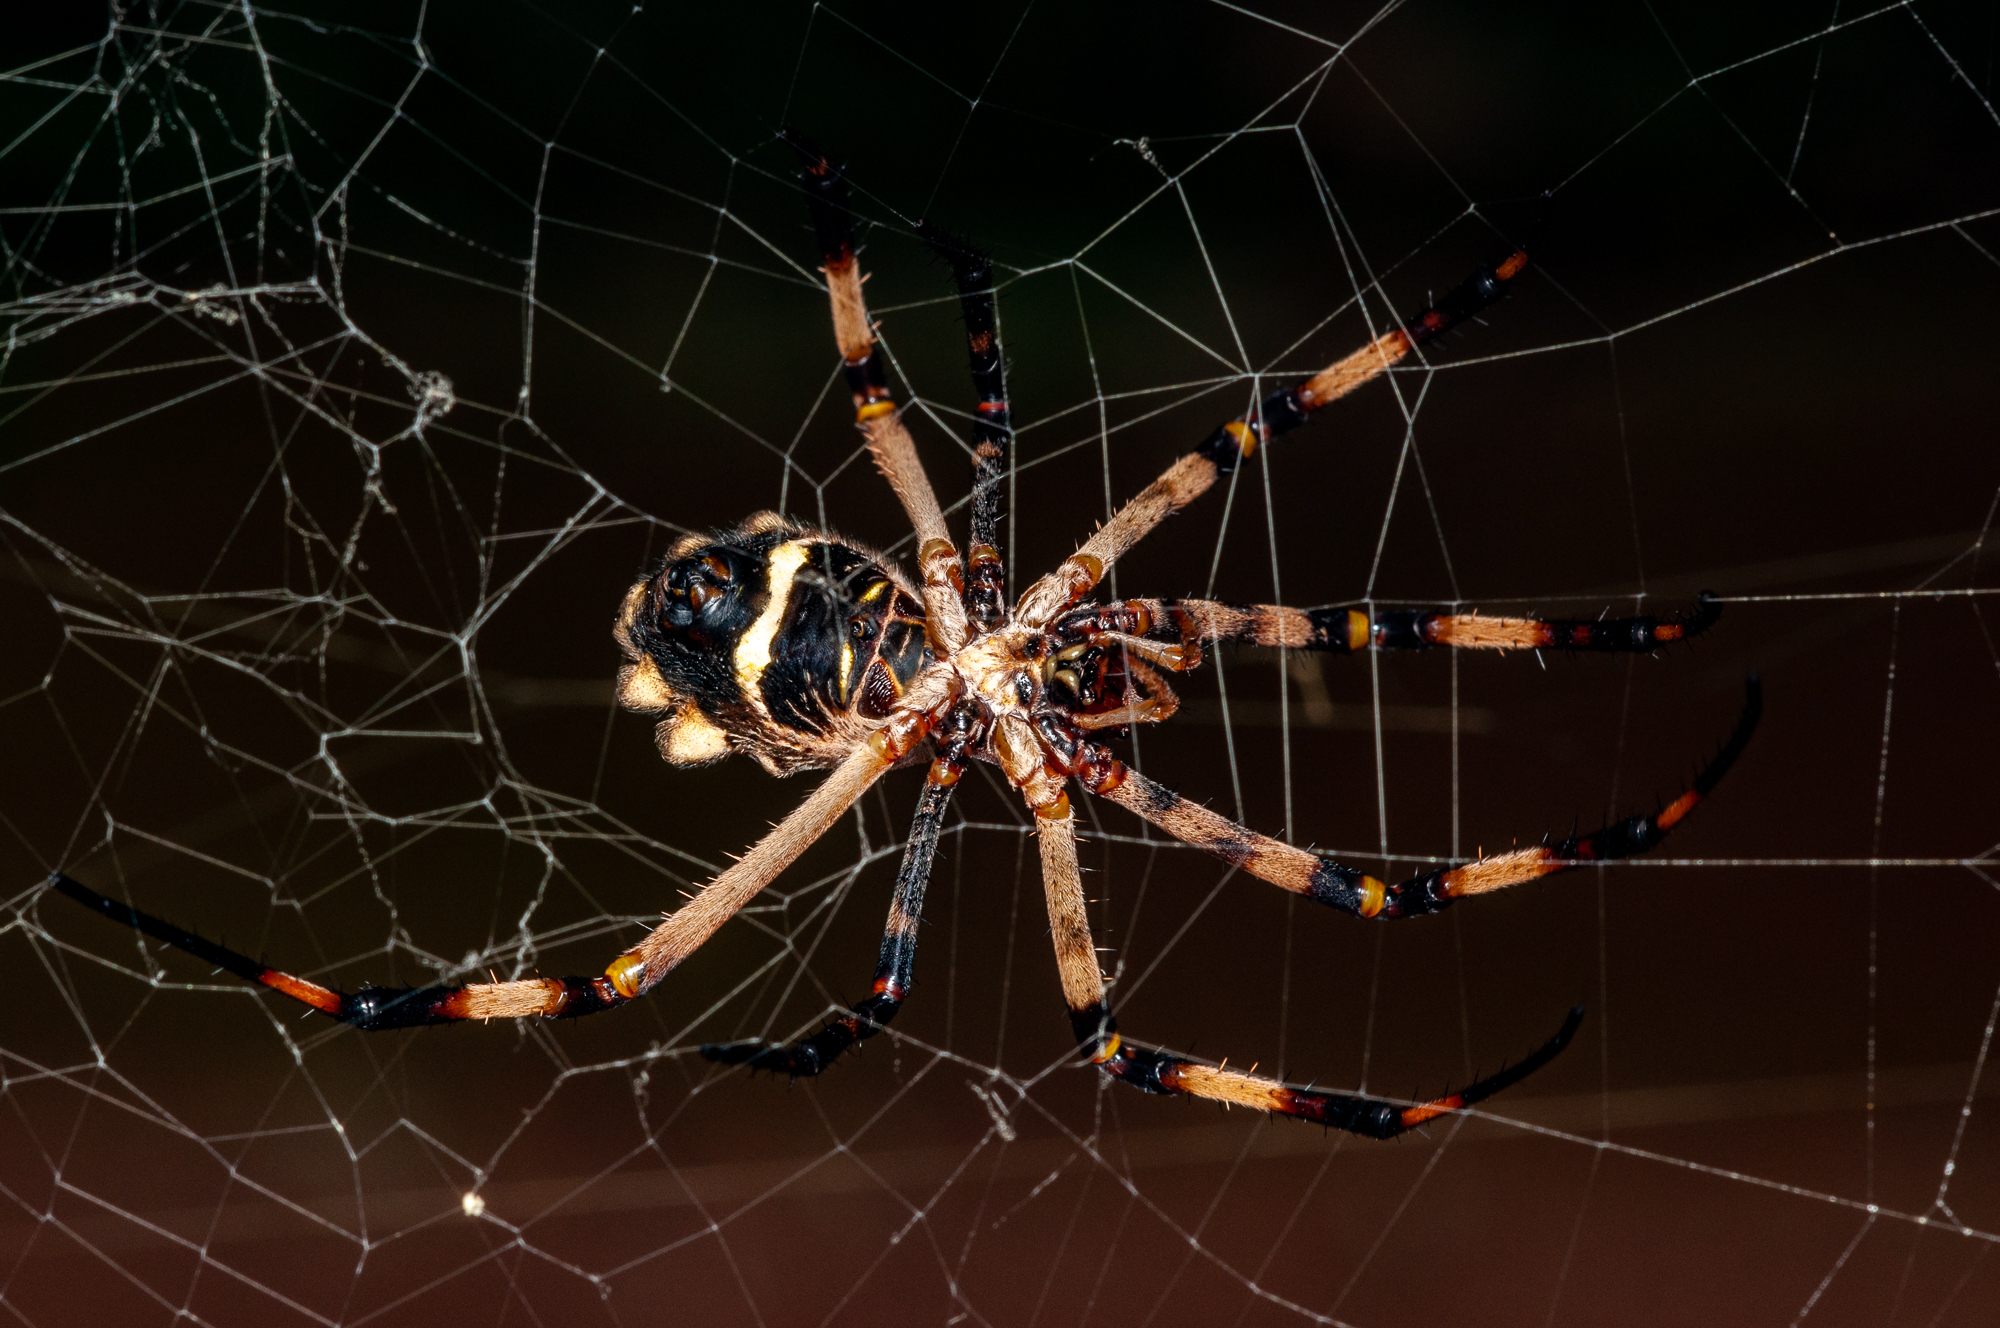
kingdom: Animalia
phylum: Arthropoda
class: Arachnida
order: Araneae
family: Araneidae
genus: Argiope
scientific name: Argiope argentata
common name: Orb weavers
